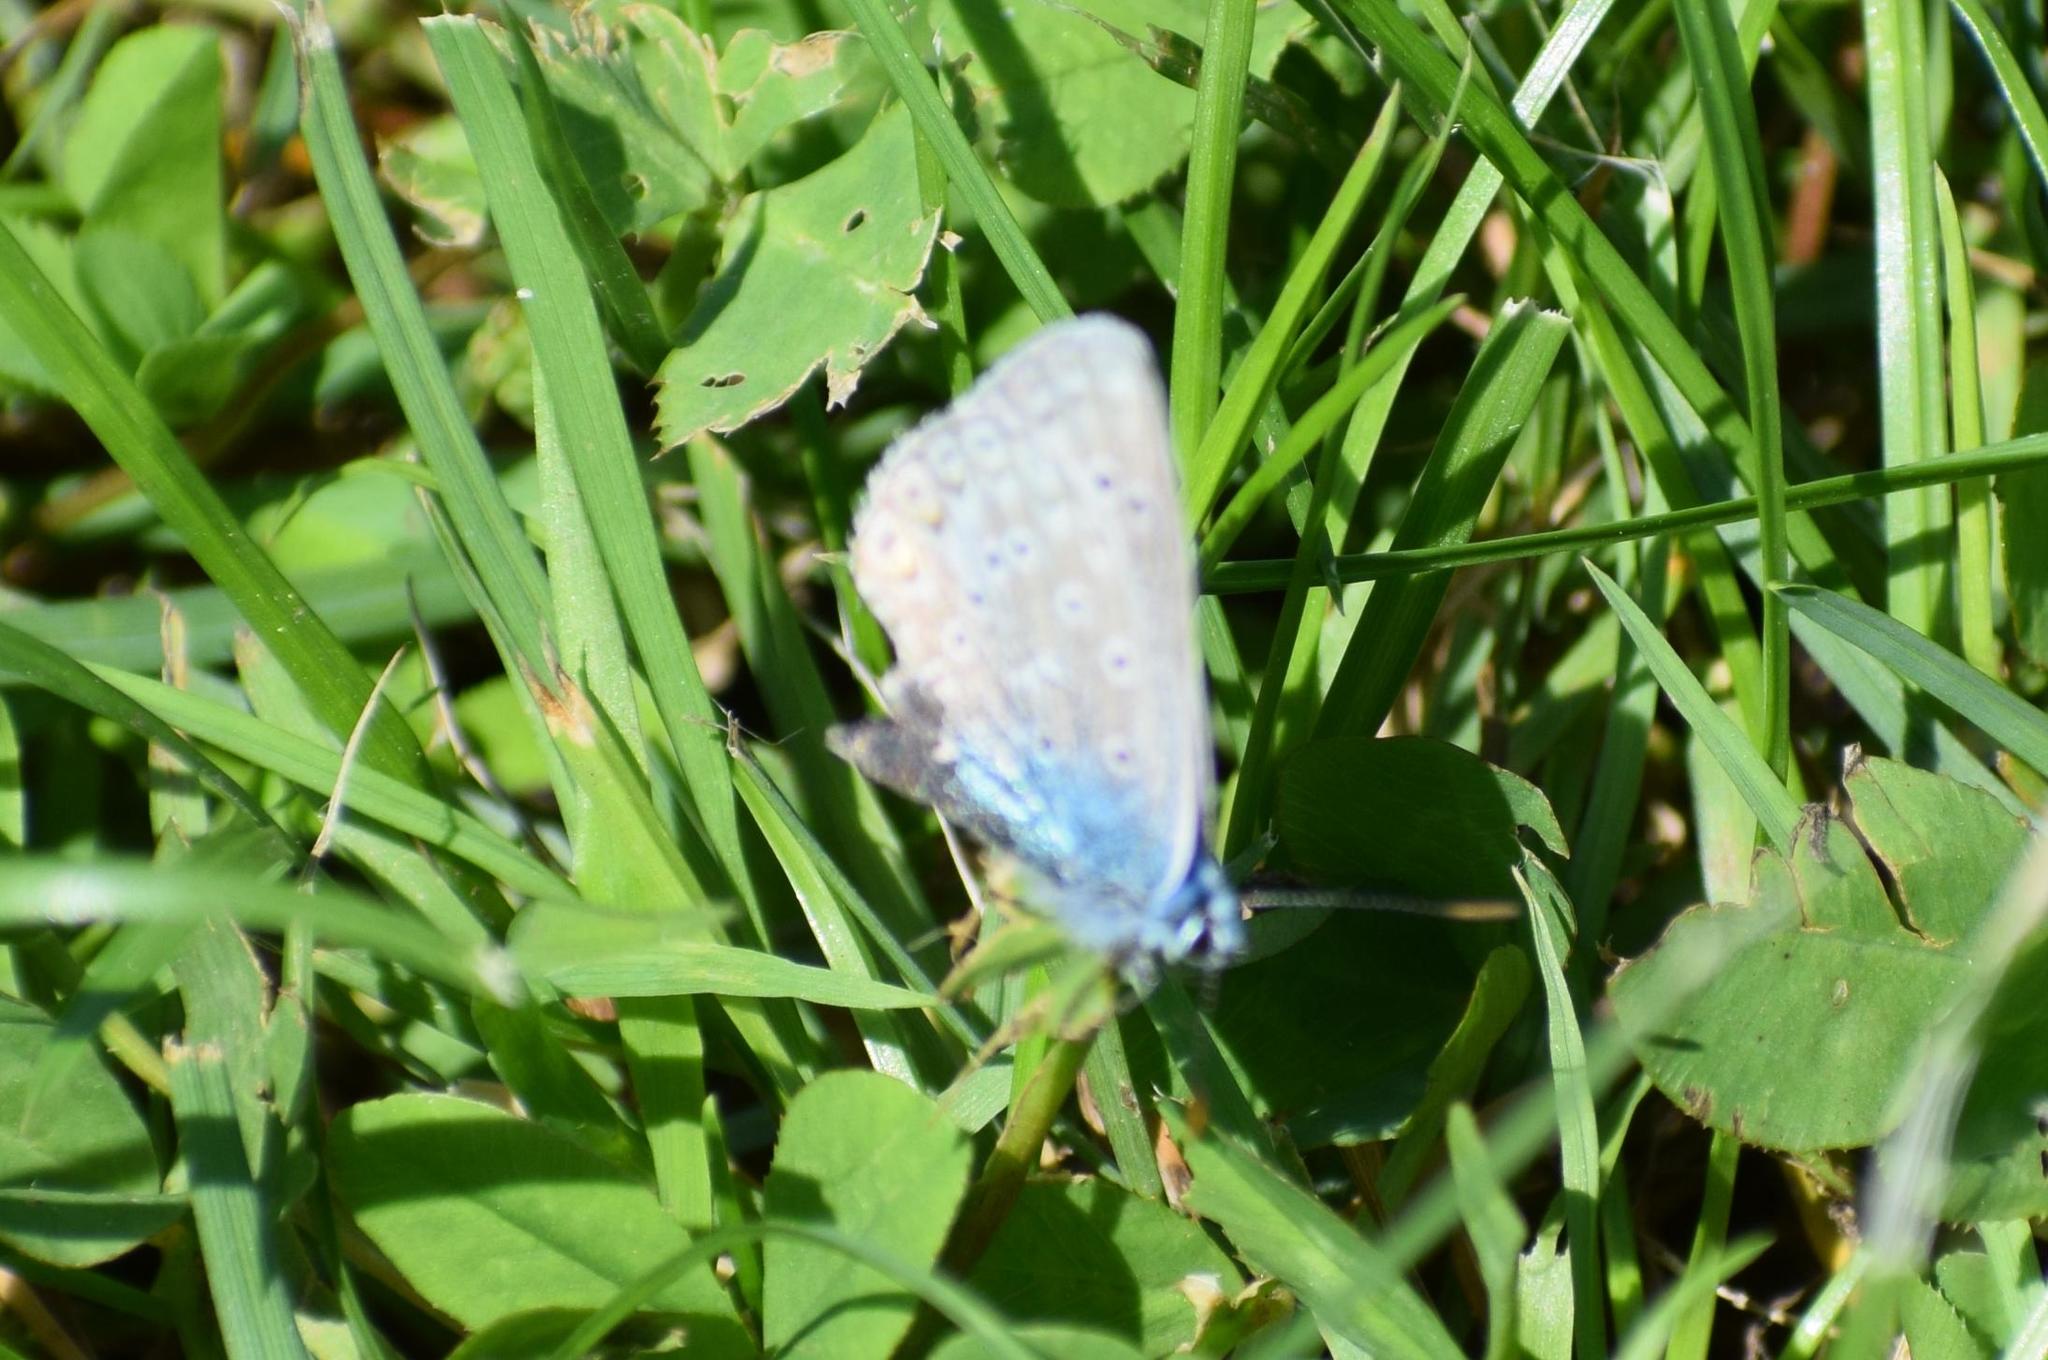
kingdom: Animalia
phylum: Arthropoda
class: Insecta
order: Lepidoptera
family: Lycaenidae
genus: Polyommatus
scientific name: Polyommatus icarus
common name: Common blue
